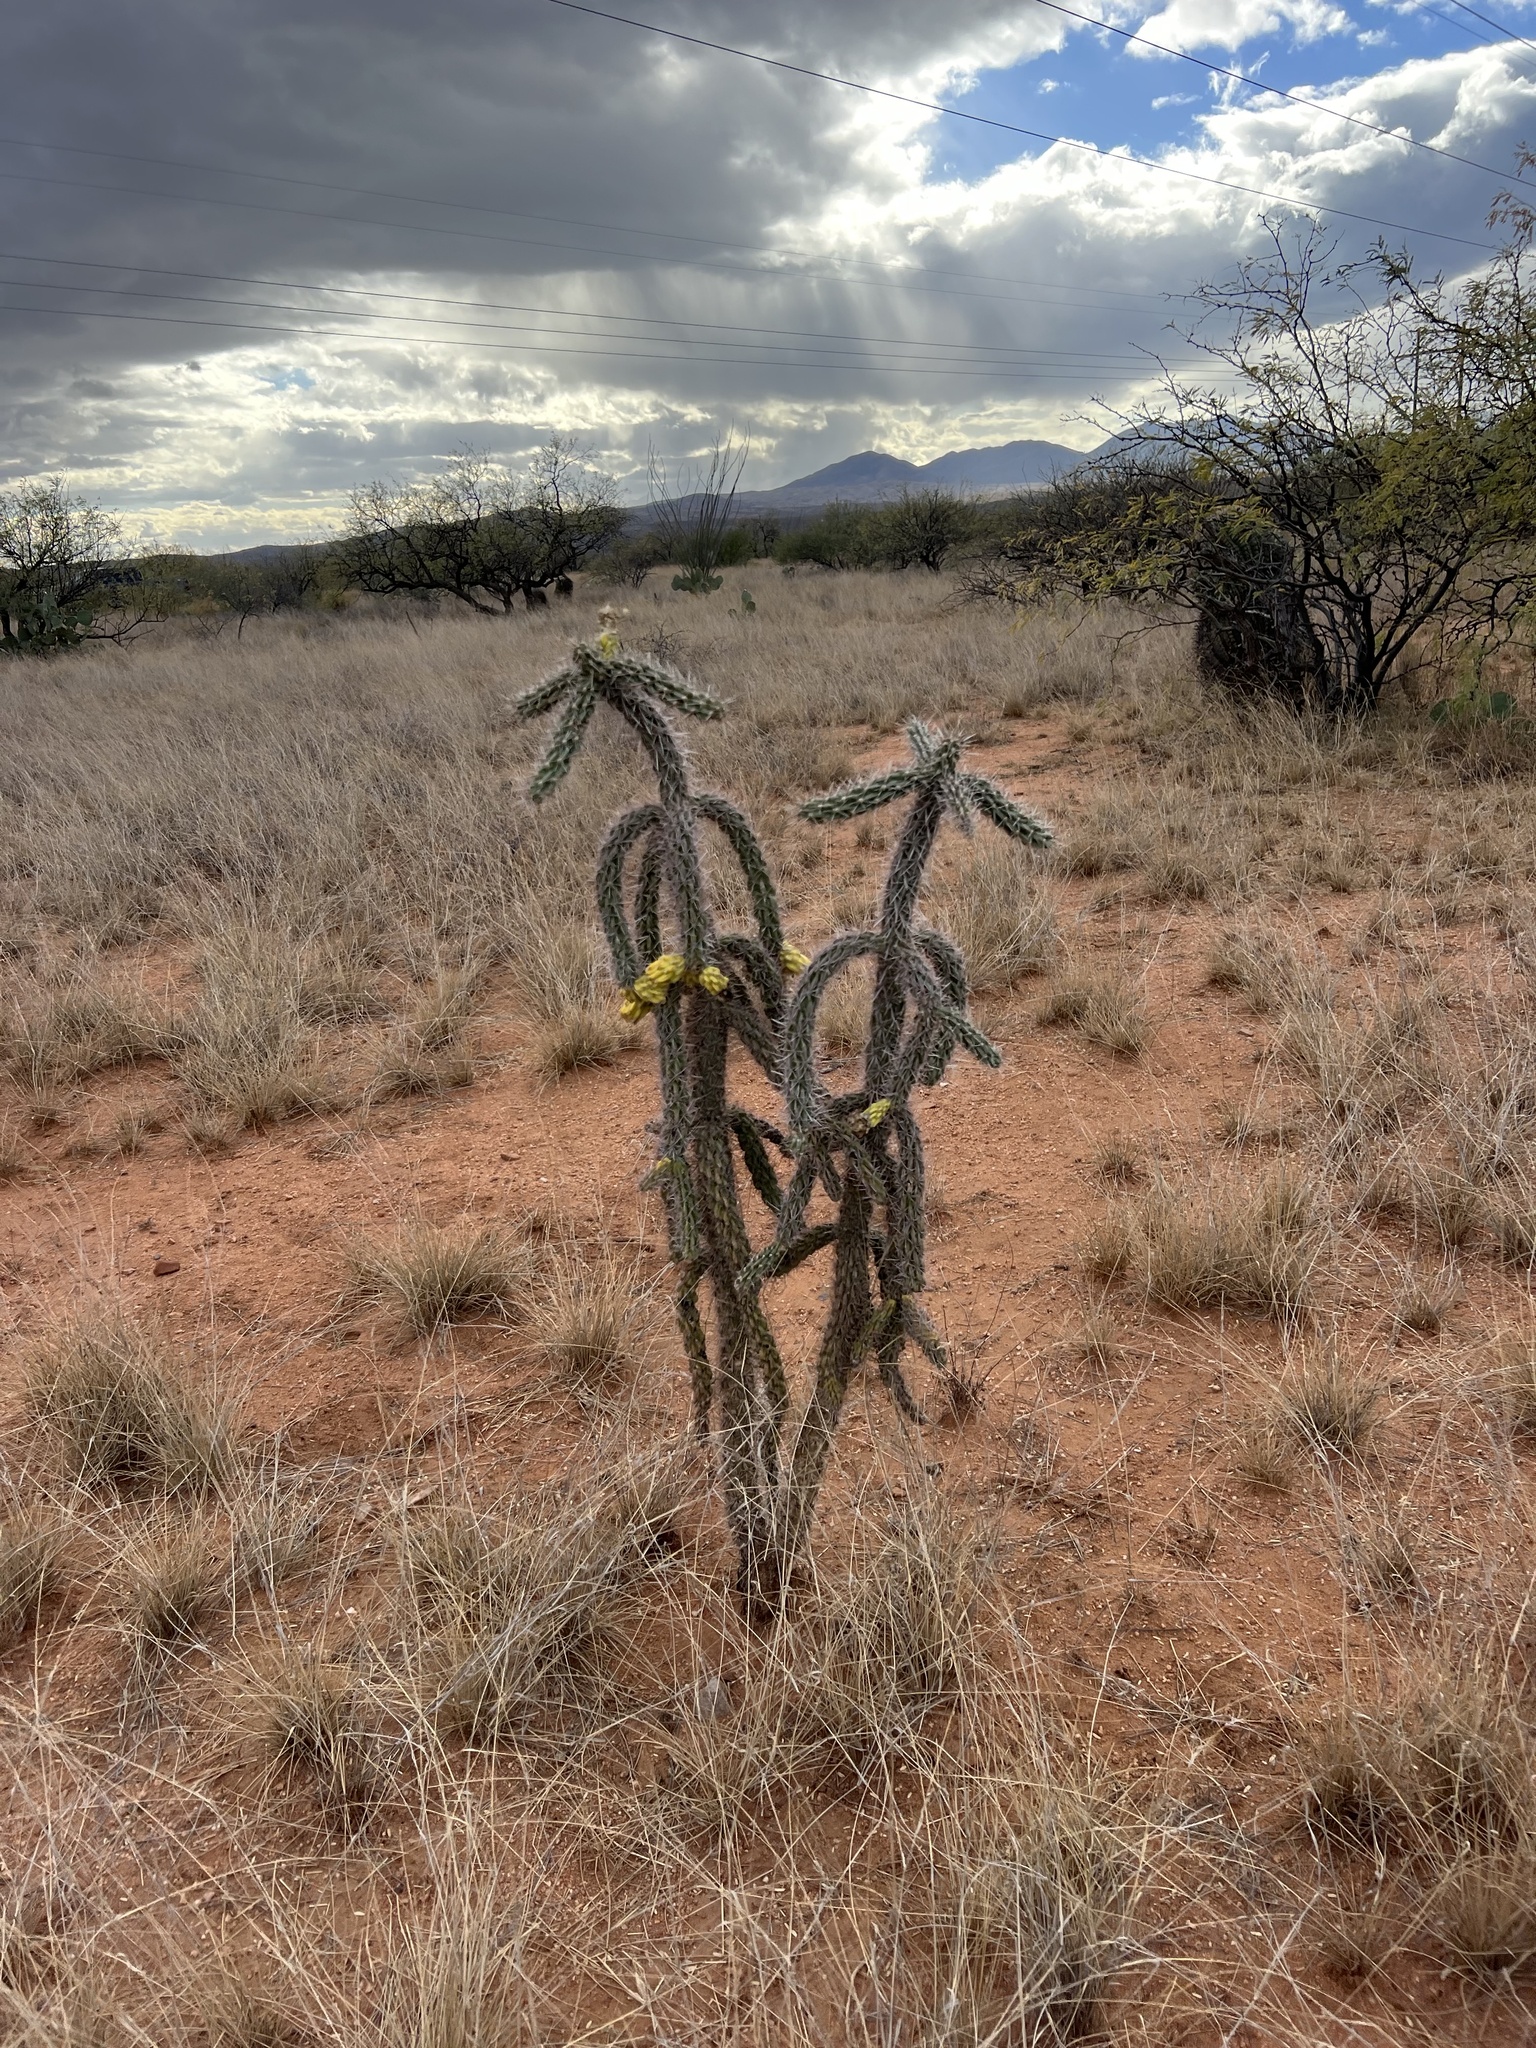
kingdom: Plantae
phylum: Tracheophyta
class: Magnoliopsida
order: Caryophyllales
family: Cactaceae
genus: Cylindropuntia
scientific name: Cylindropuntia imbricata
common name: Candelabrum cactus
